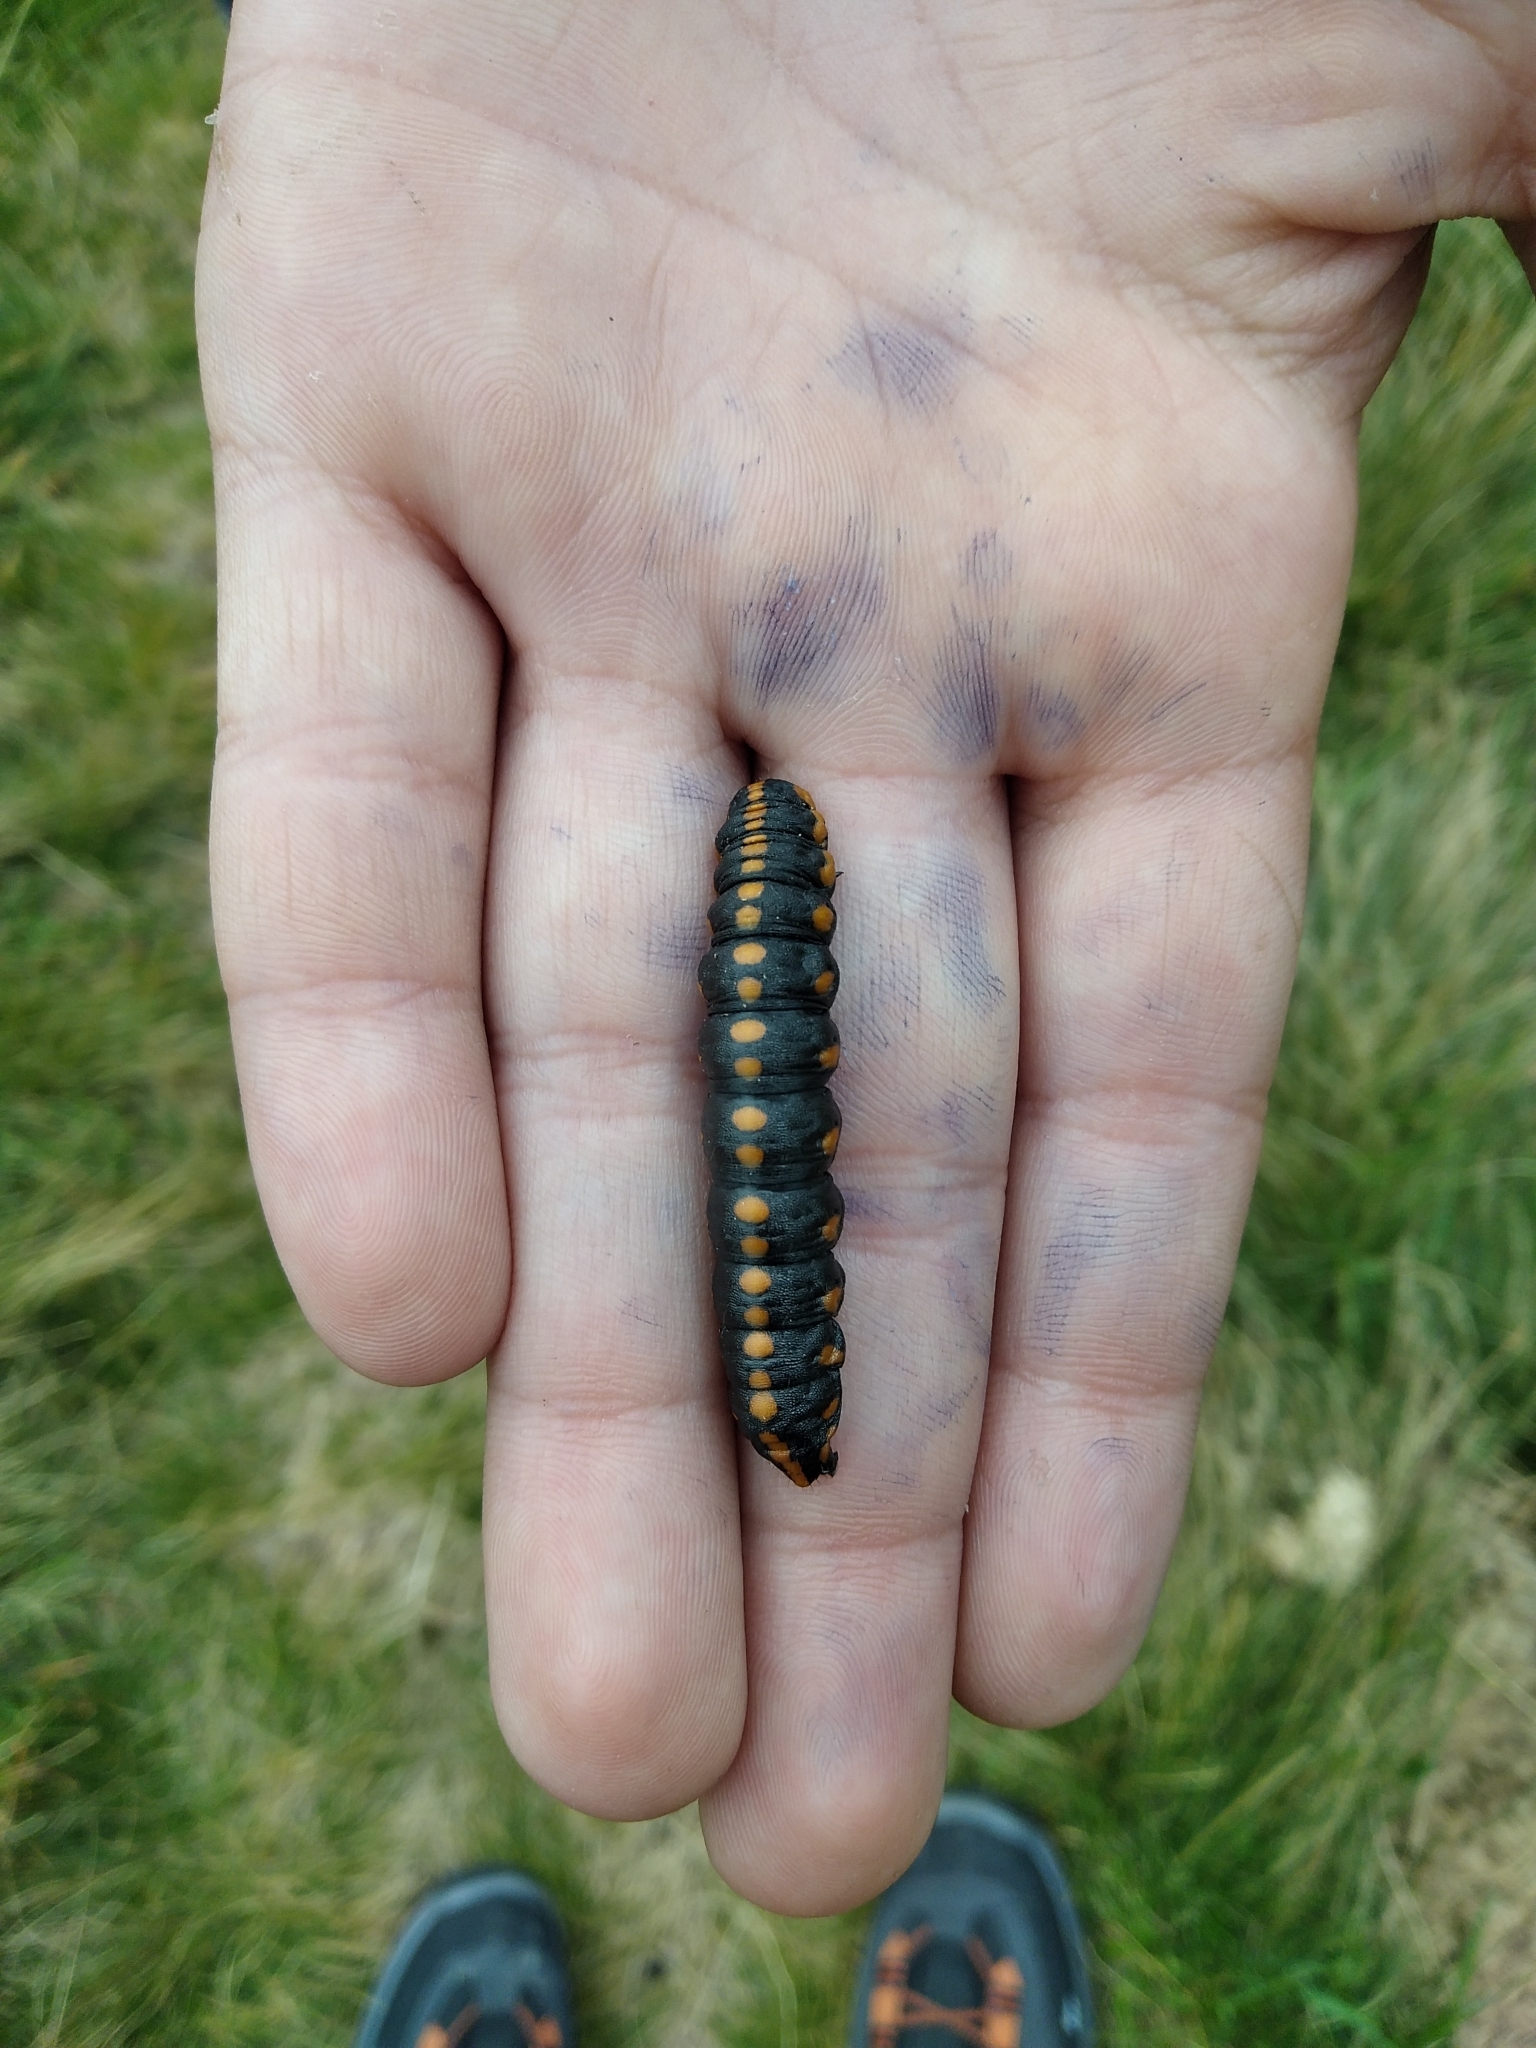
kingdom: Animalia
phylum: Arthropoda
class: Insecta
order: Lepidoptera
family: Noctuidae
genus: Cucullia
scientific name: Cucullia lucifuga
